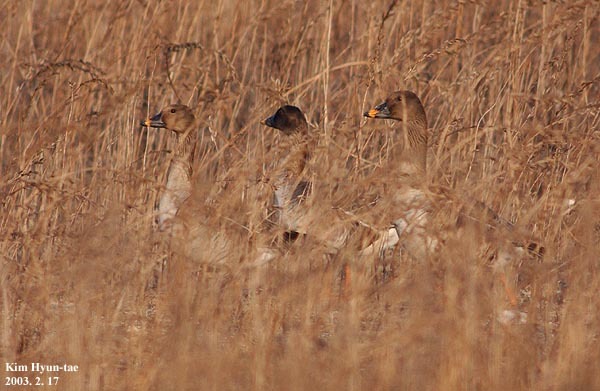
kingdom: Animalia
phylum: Chordata
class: Aves
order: Anseriformes
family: Anatidae
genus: Anser
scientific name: Anser fabalis
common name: Bean goose
